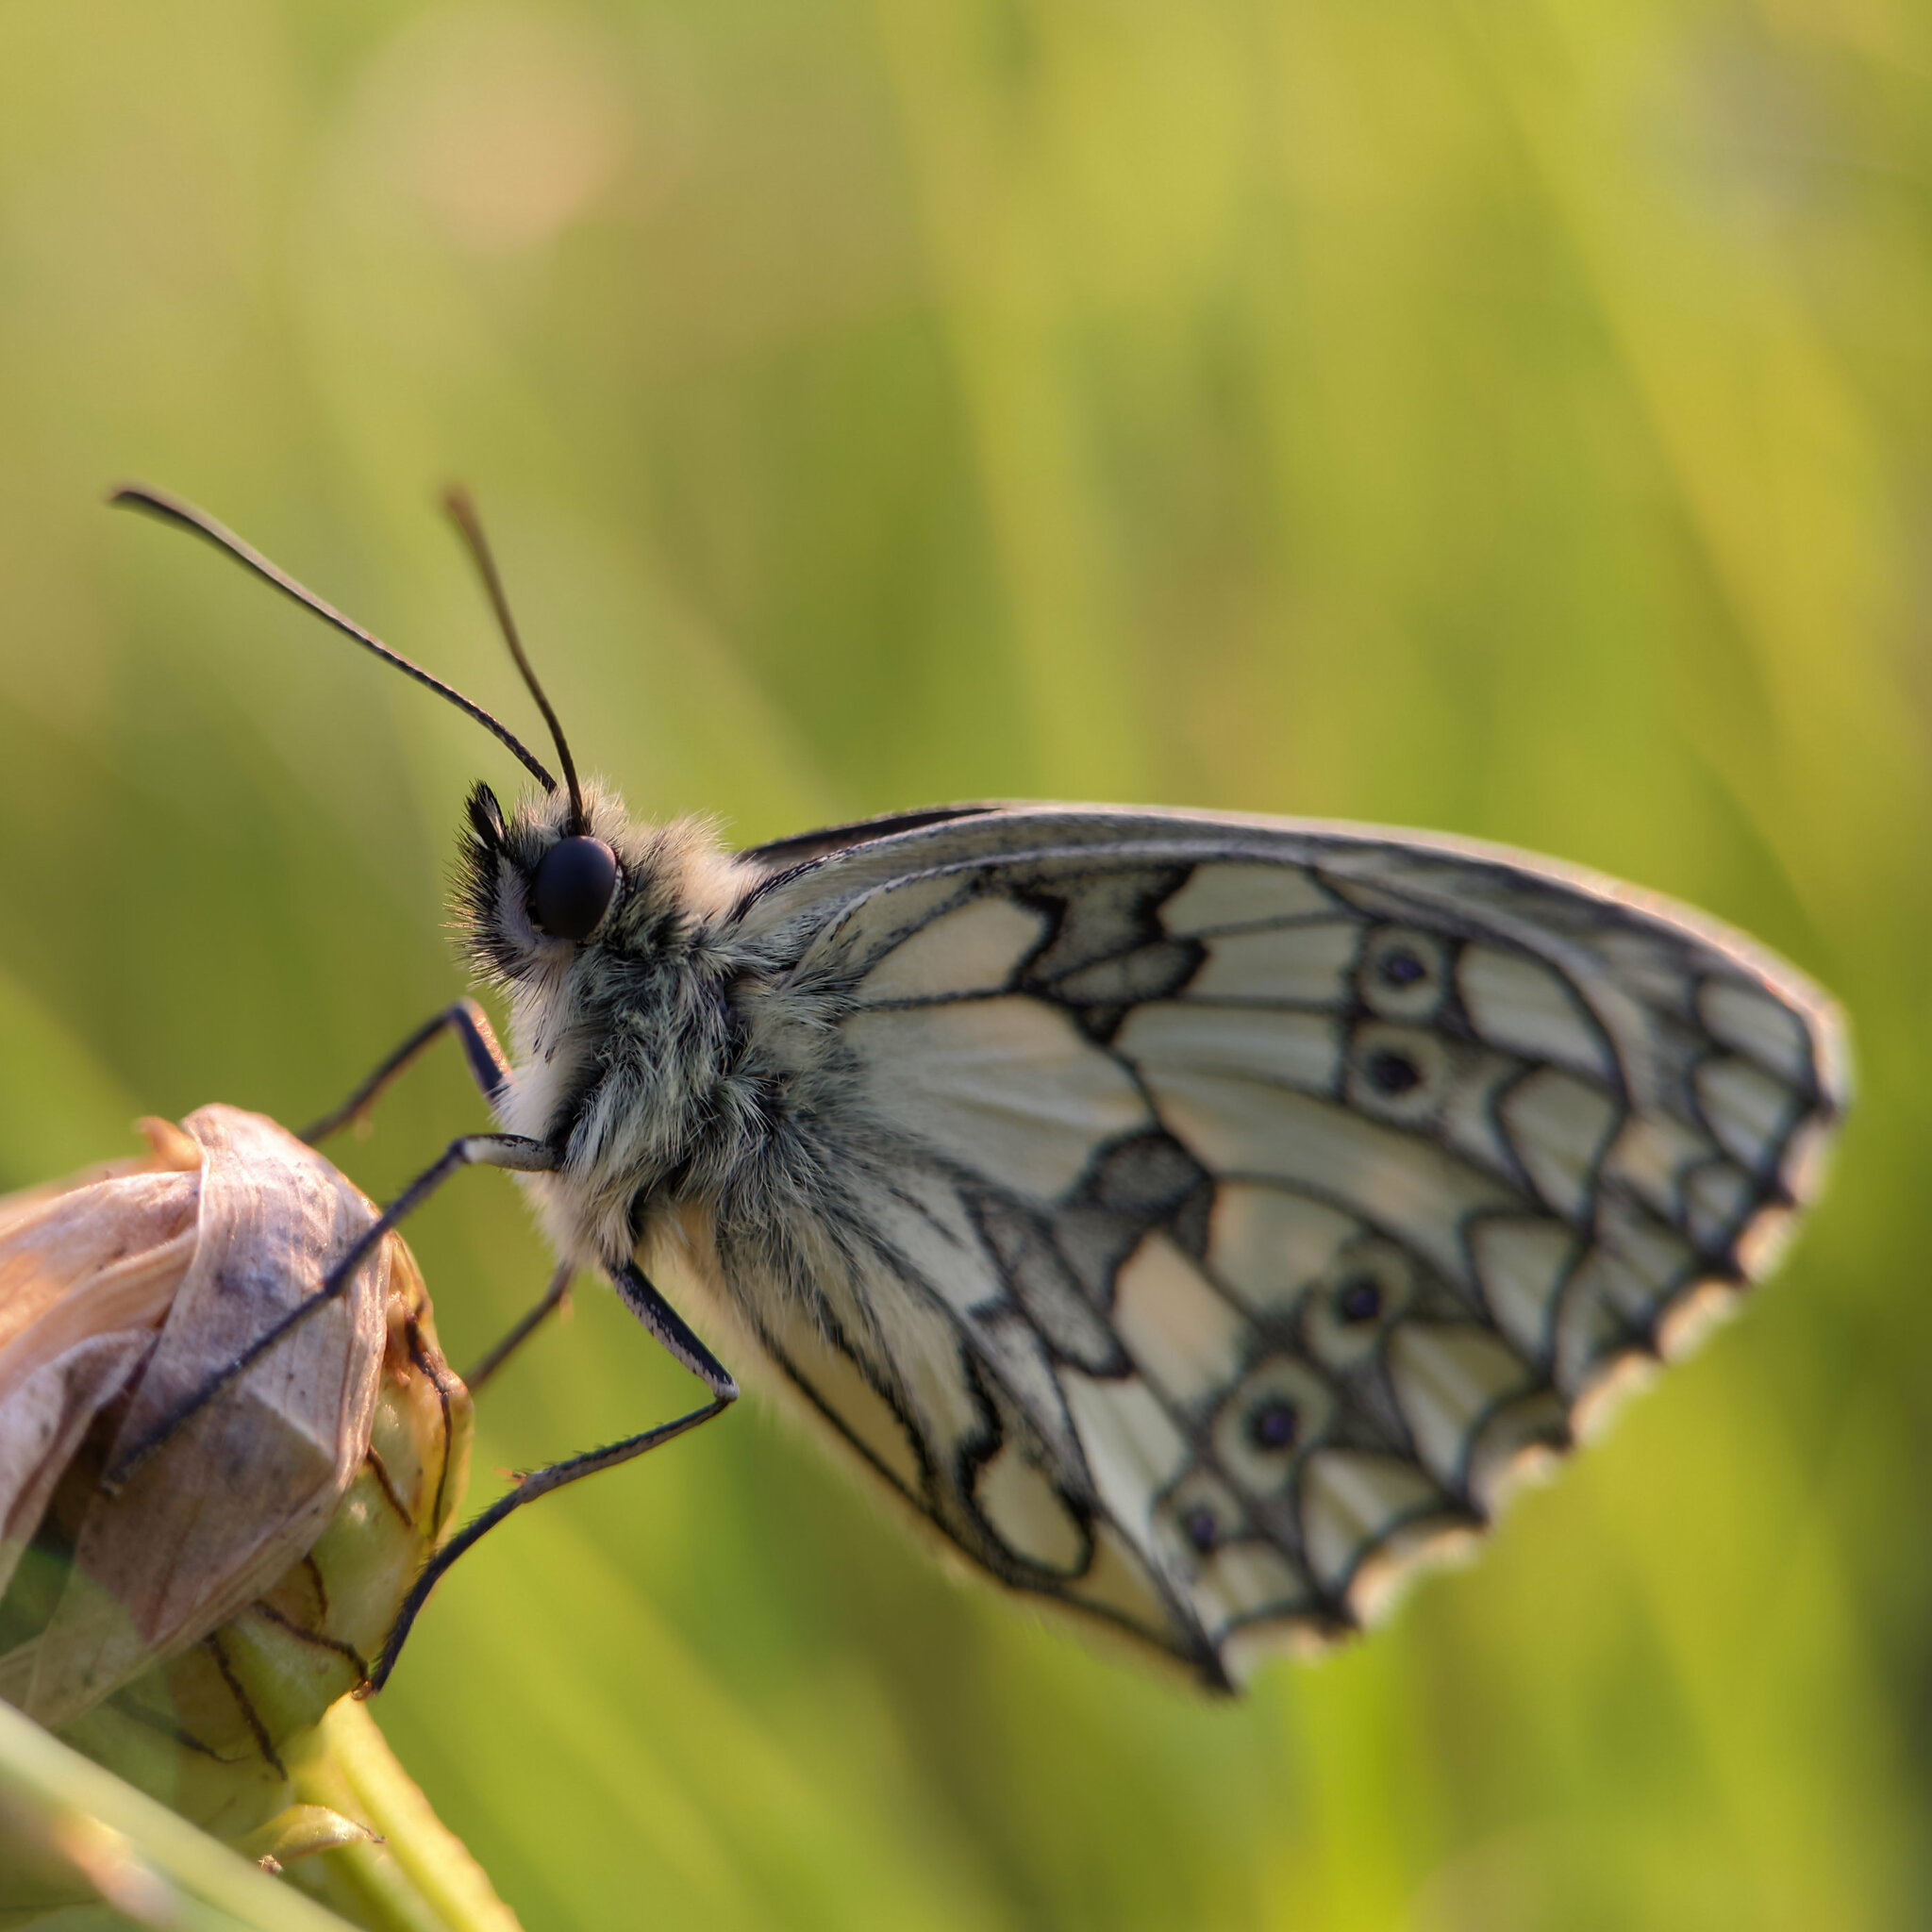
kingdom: Animalia
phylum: Arthropoda
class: Insecta
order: Lepidoptera
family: Nymphalidae
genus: Melanargia
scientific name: Melanargia galathea
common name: Marbled white
